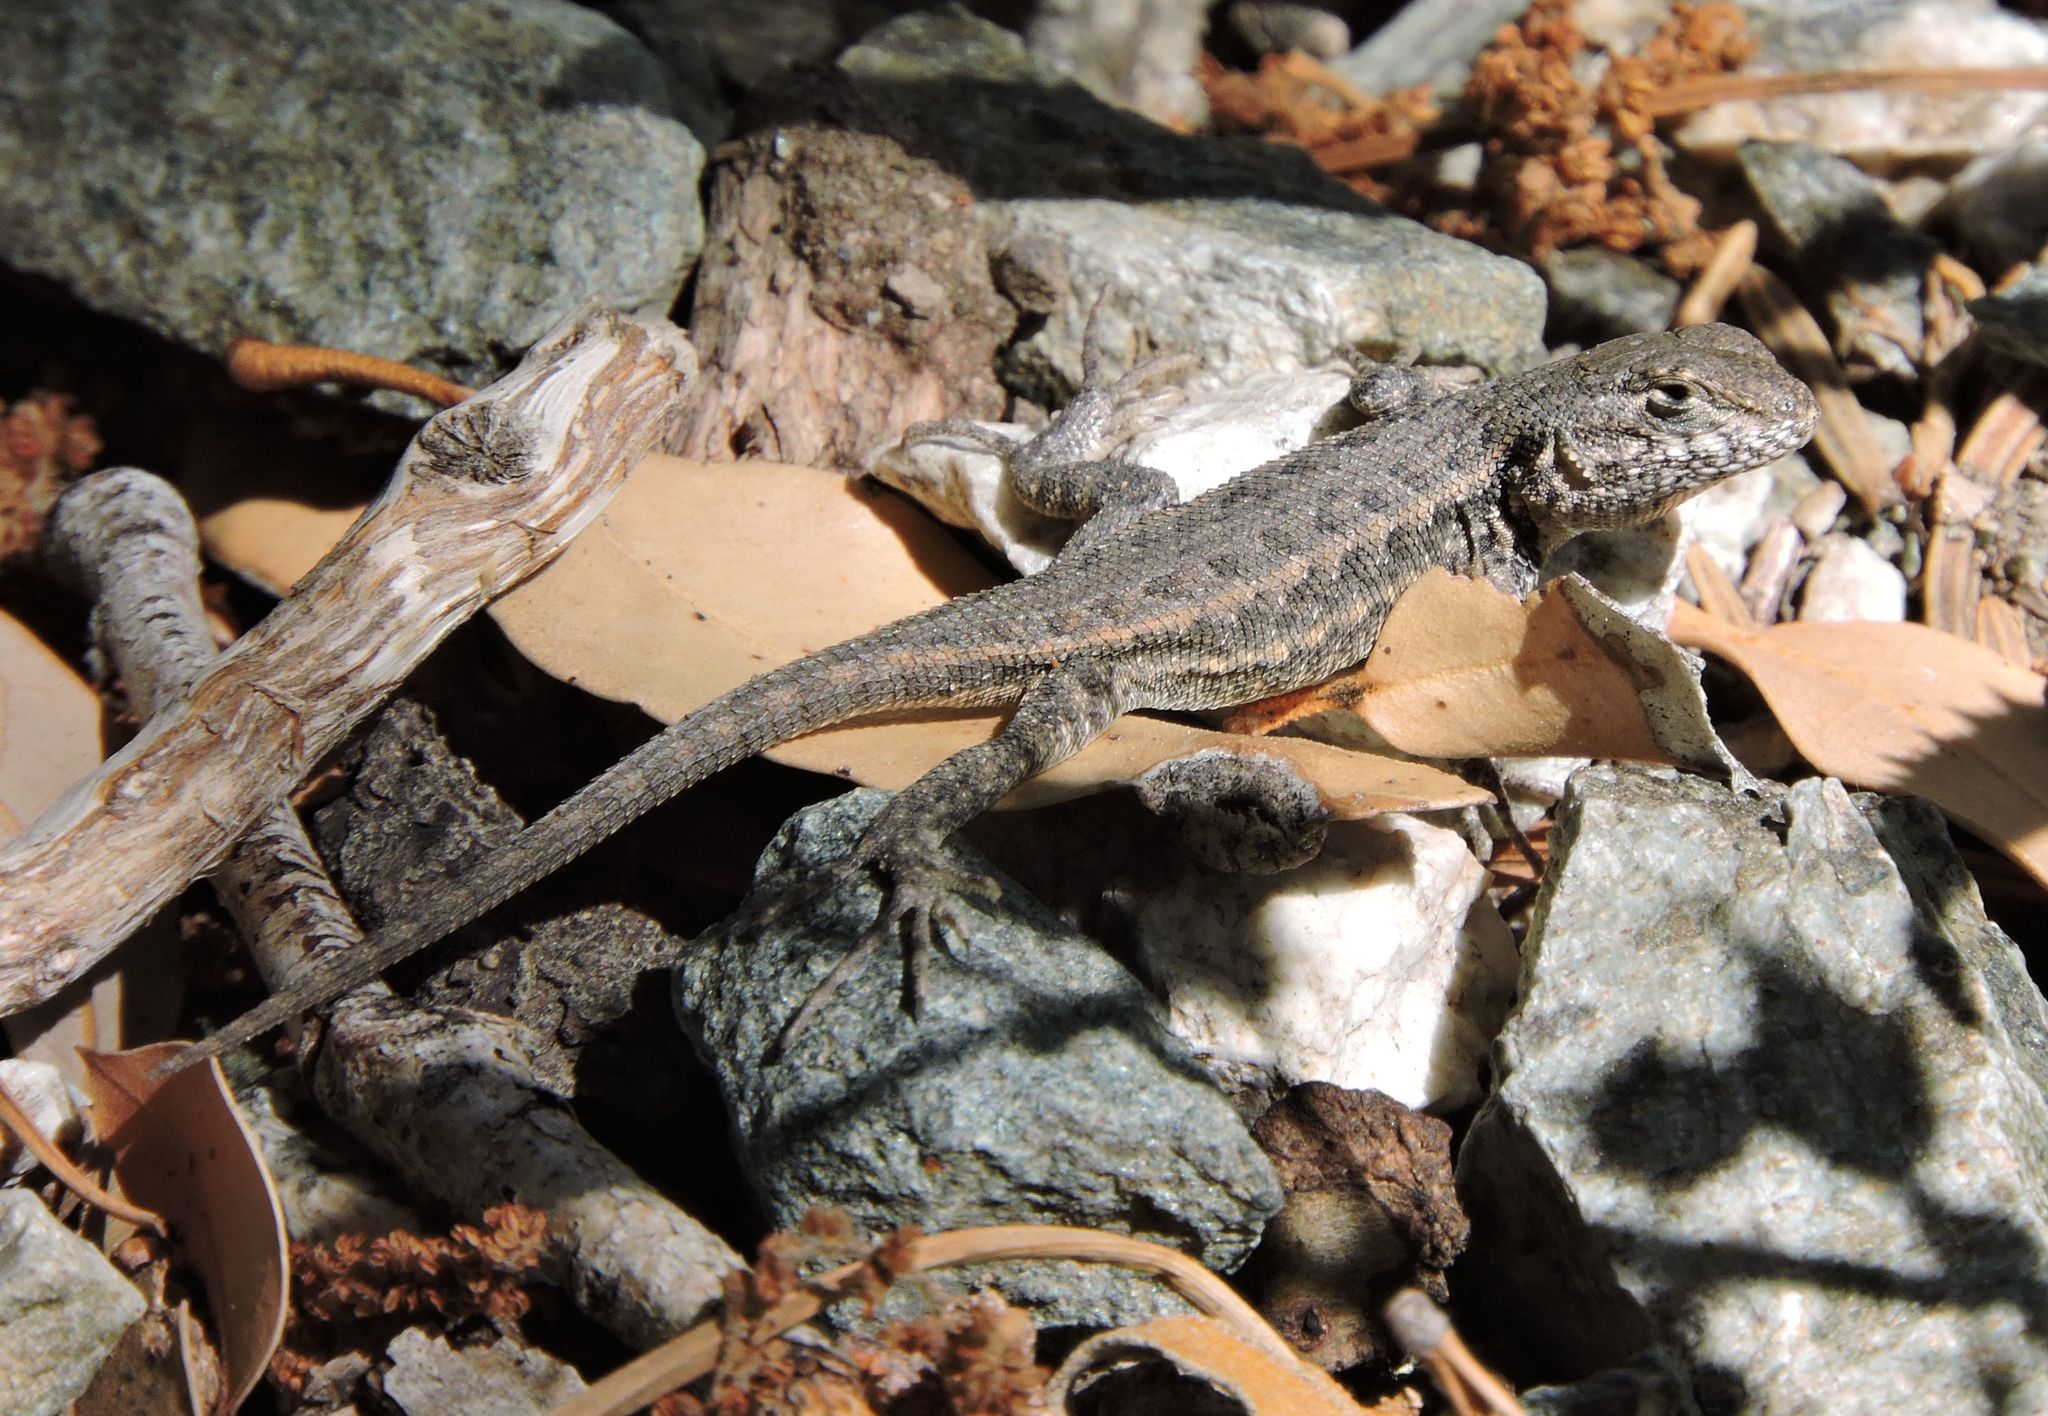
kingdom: Animalia
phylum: Chordata
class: Squamata
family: Phrynosomatidae
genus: Sceloporus
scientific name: Sceloporus occidentalis
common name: Western fence lizard
